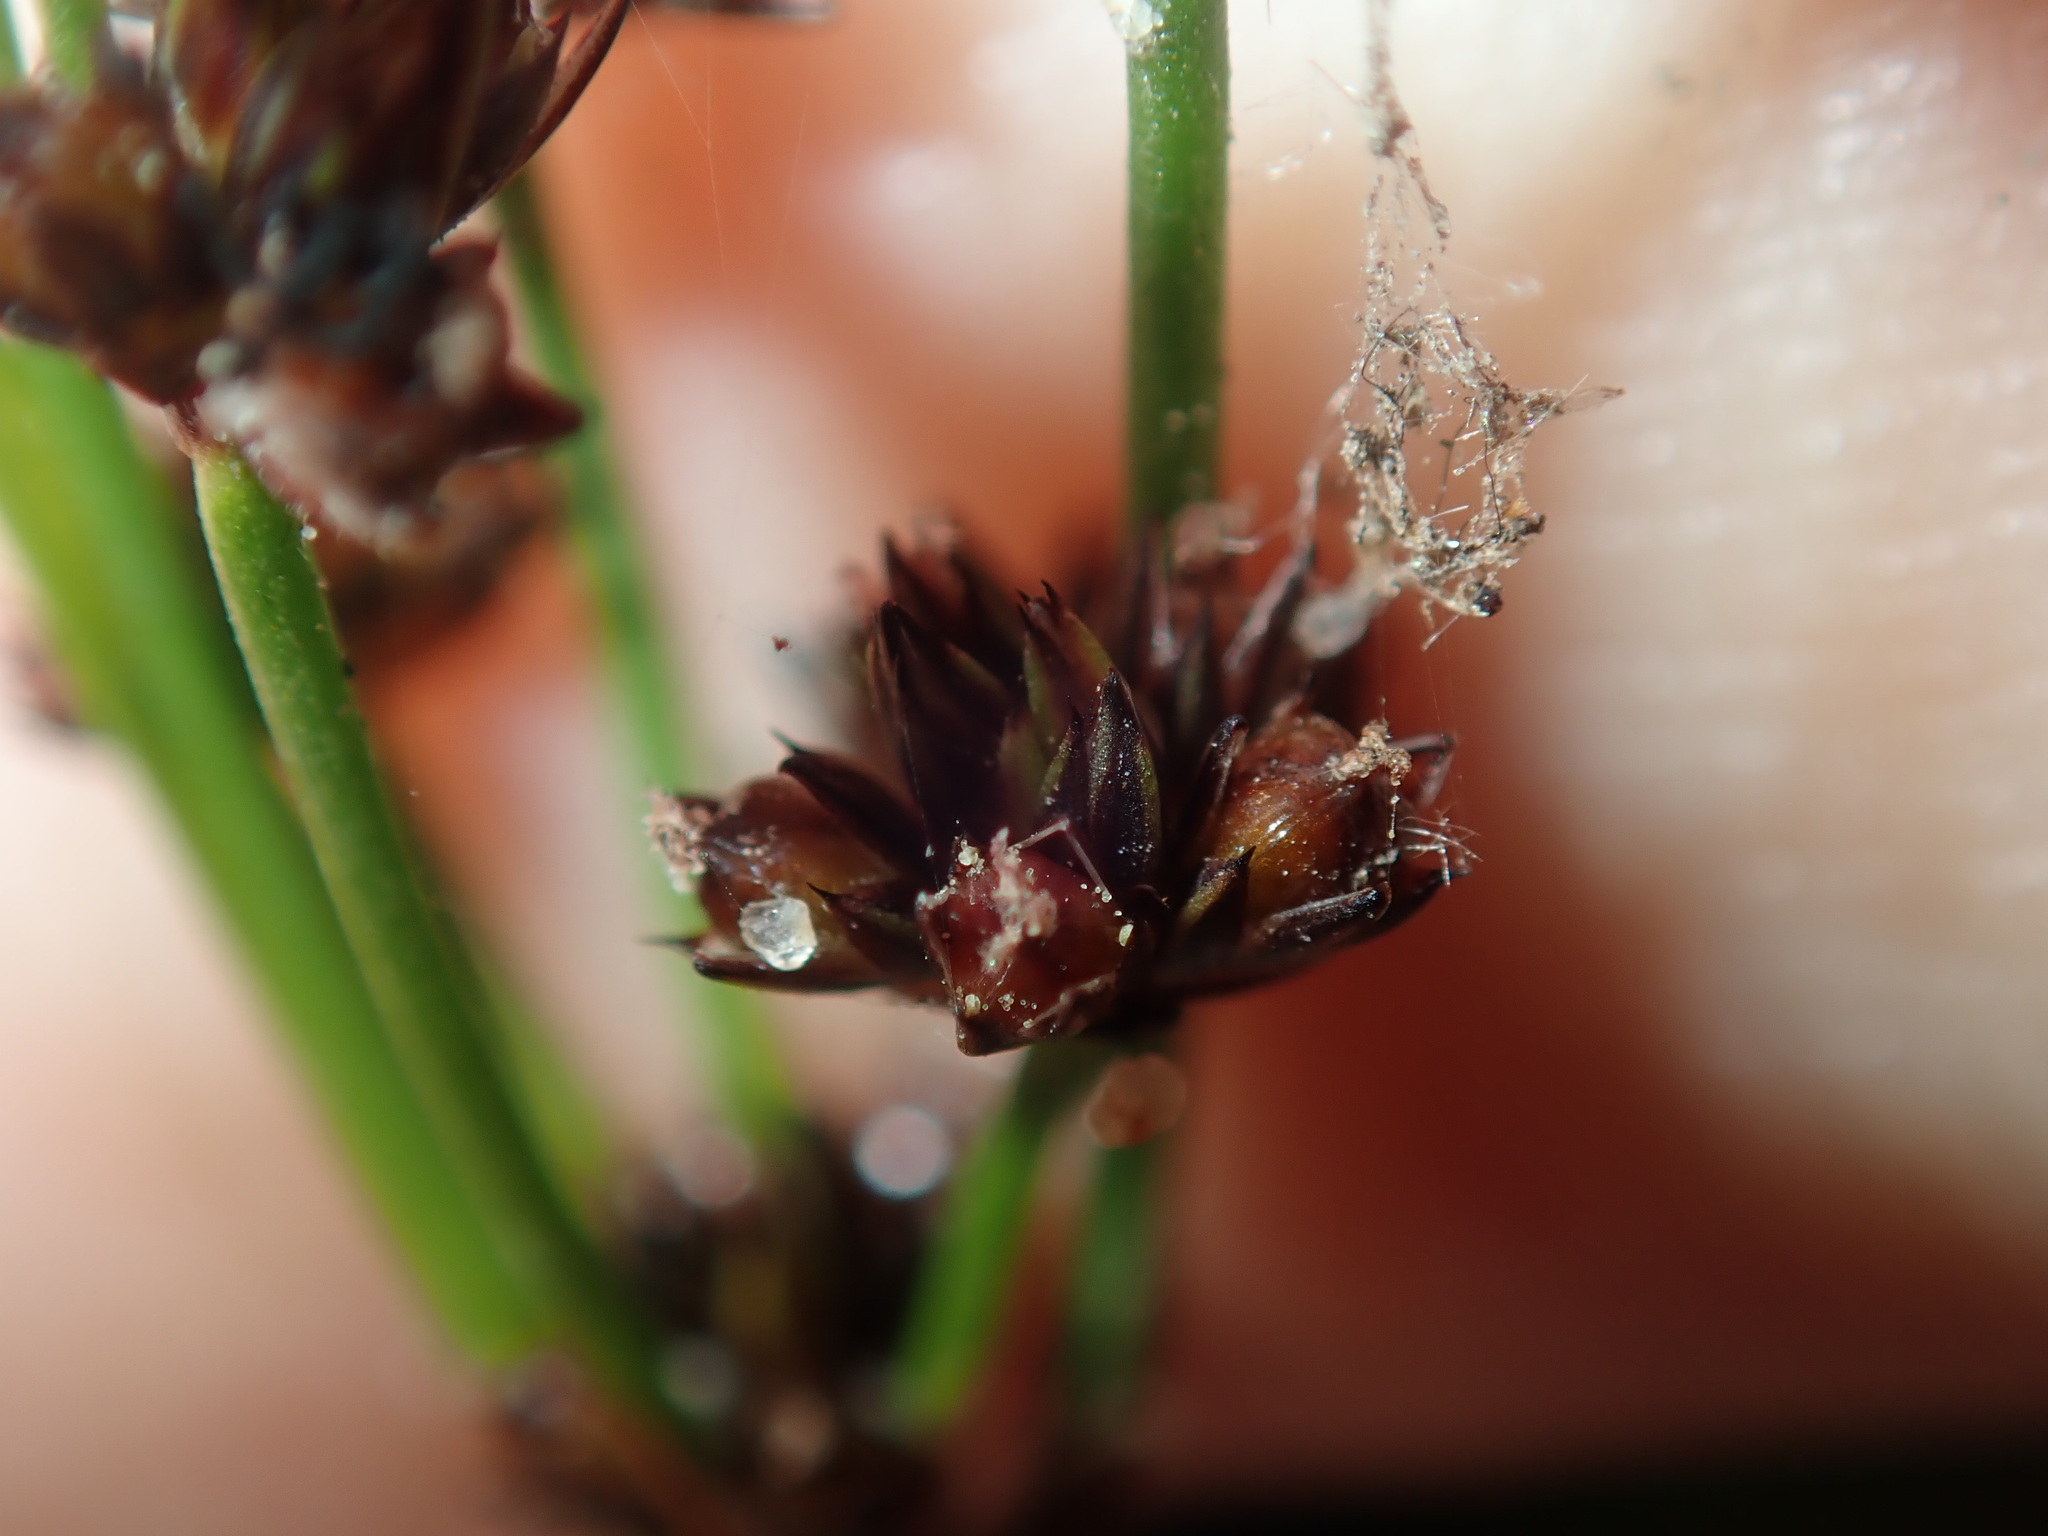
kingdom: Plantae
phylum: Tracheophyta
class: Liliopsida
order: Poales
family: Juncaceae
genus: Juncus
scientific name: Juncus planifolius
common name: Broadleaf rush
